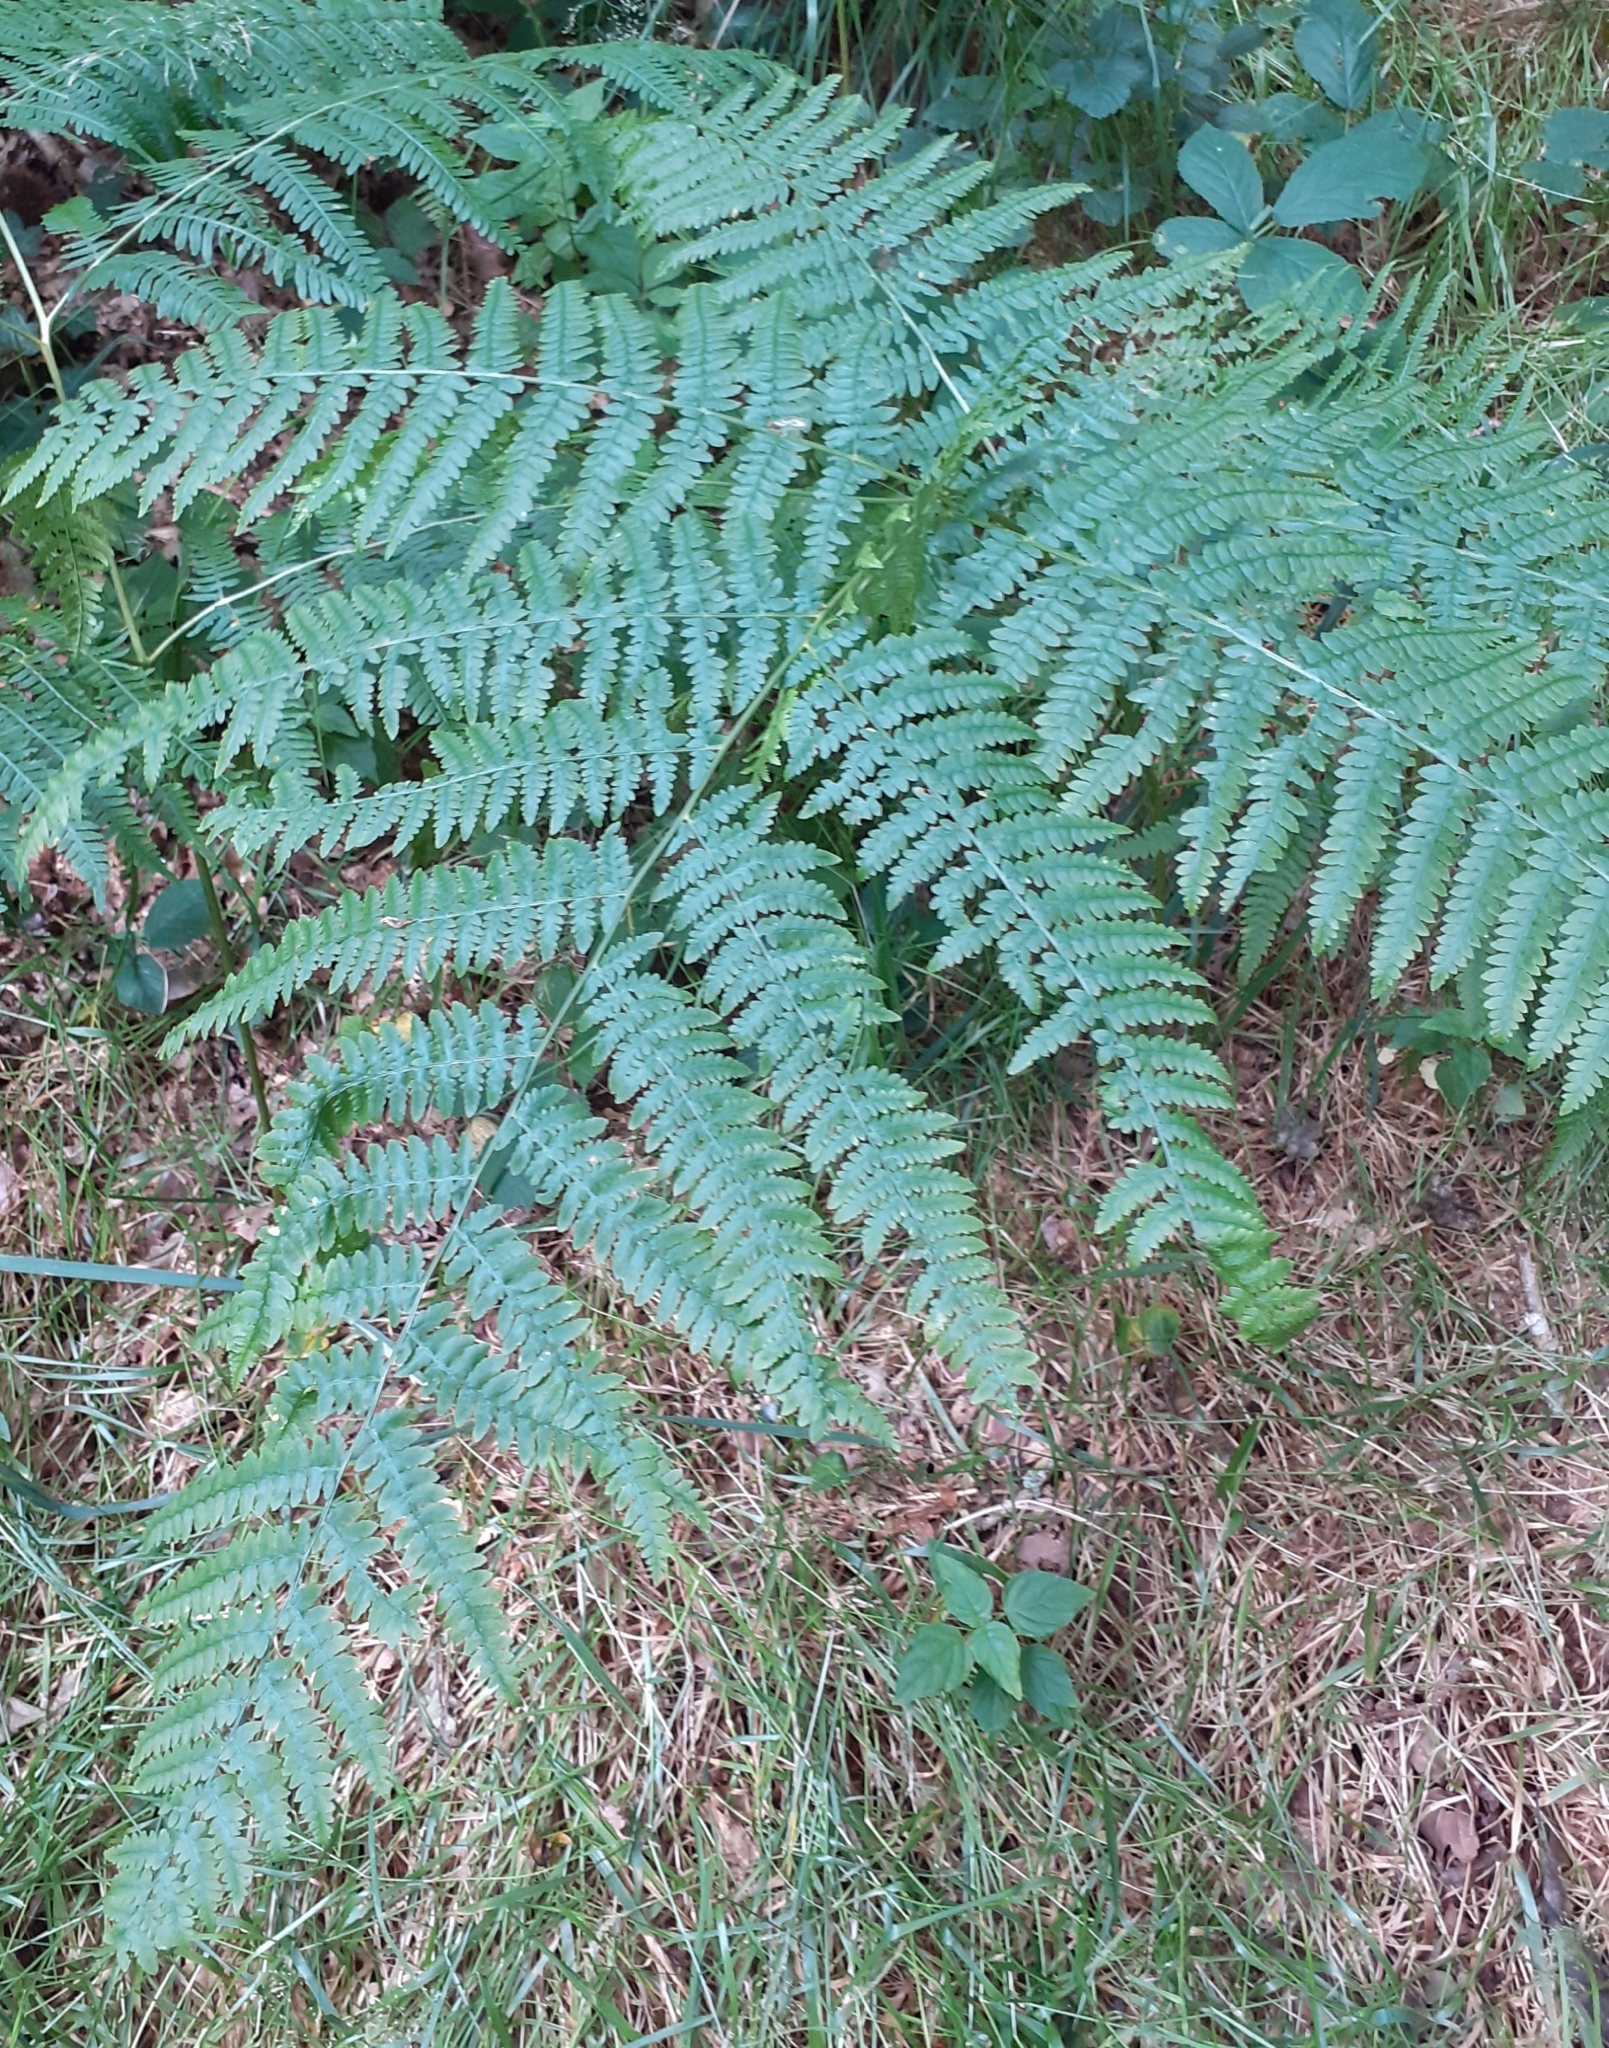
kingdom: Plantae
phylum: Tracheophyta
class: Polypodiopsida
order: Polypodiales
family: Dennstaedtiaceae
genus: Pteridium
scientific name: Pteridium aquilinum
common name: Bracken
